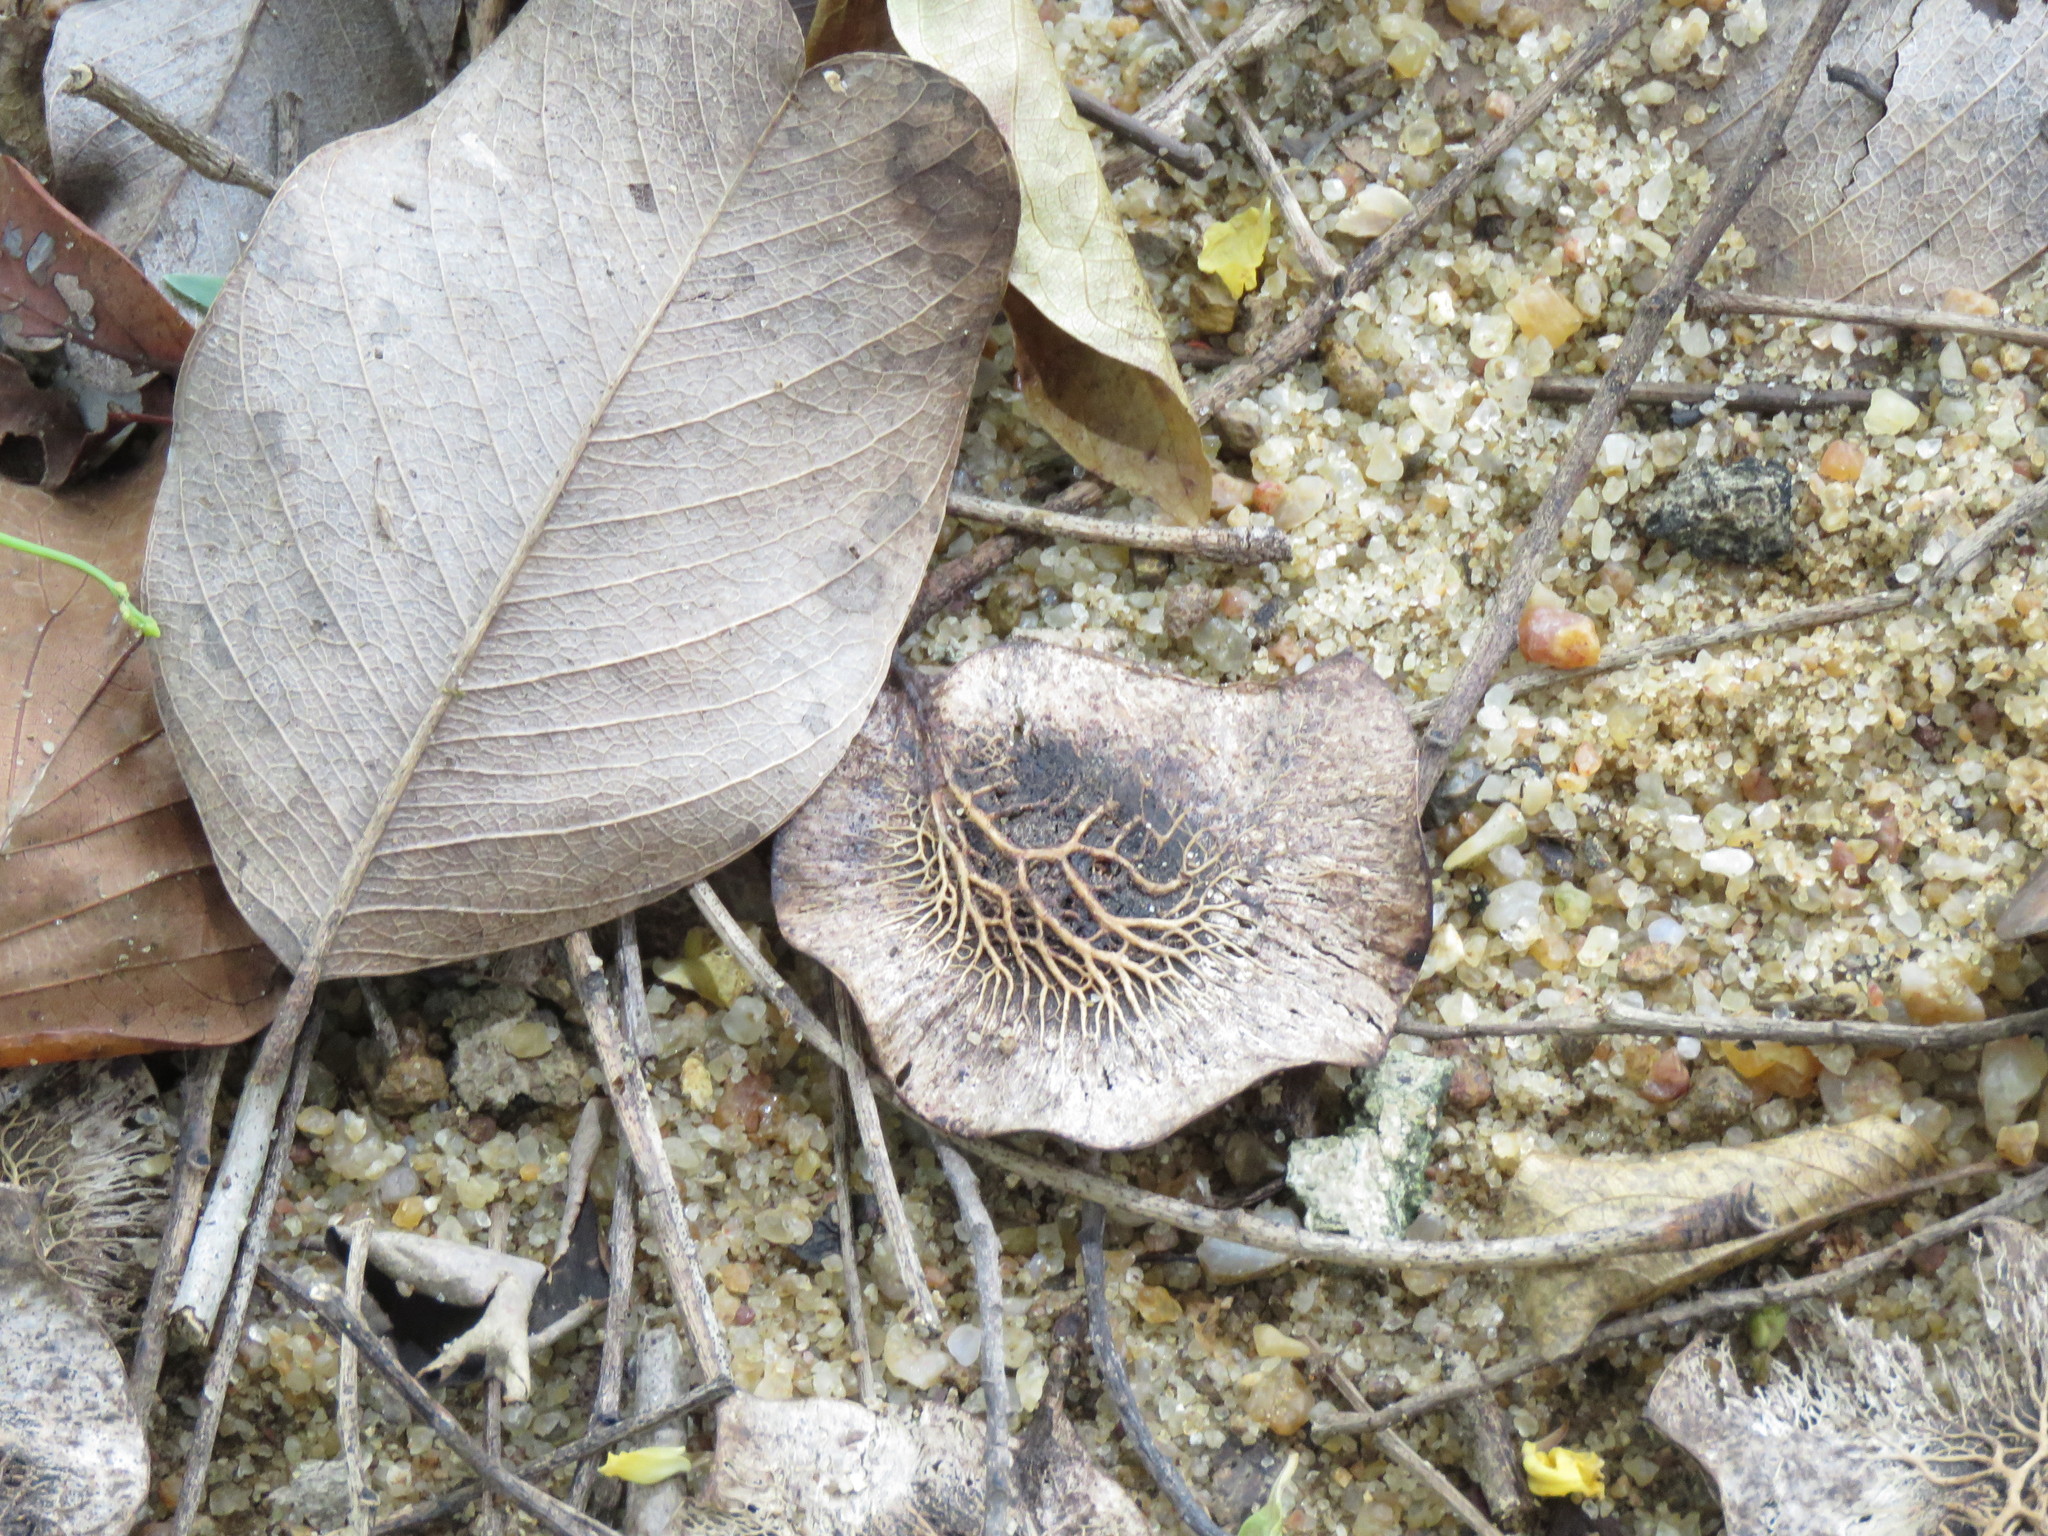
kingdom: Plantae
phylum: Tracheophyta
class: Magnoliopsida
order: Fabales
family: Fabaceae
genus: Pterocarpus
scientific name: Pterocarpus marsupium
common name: East indian/malabar kino
